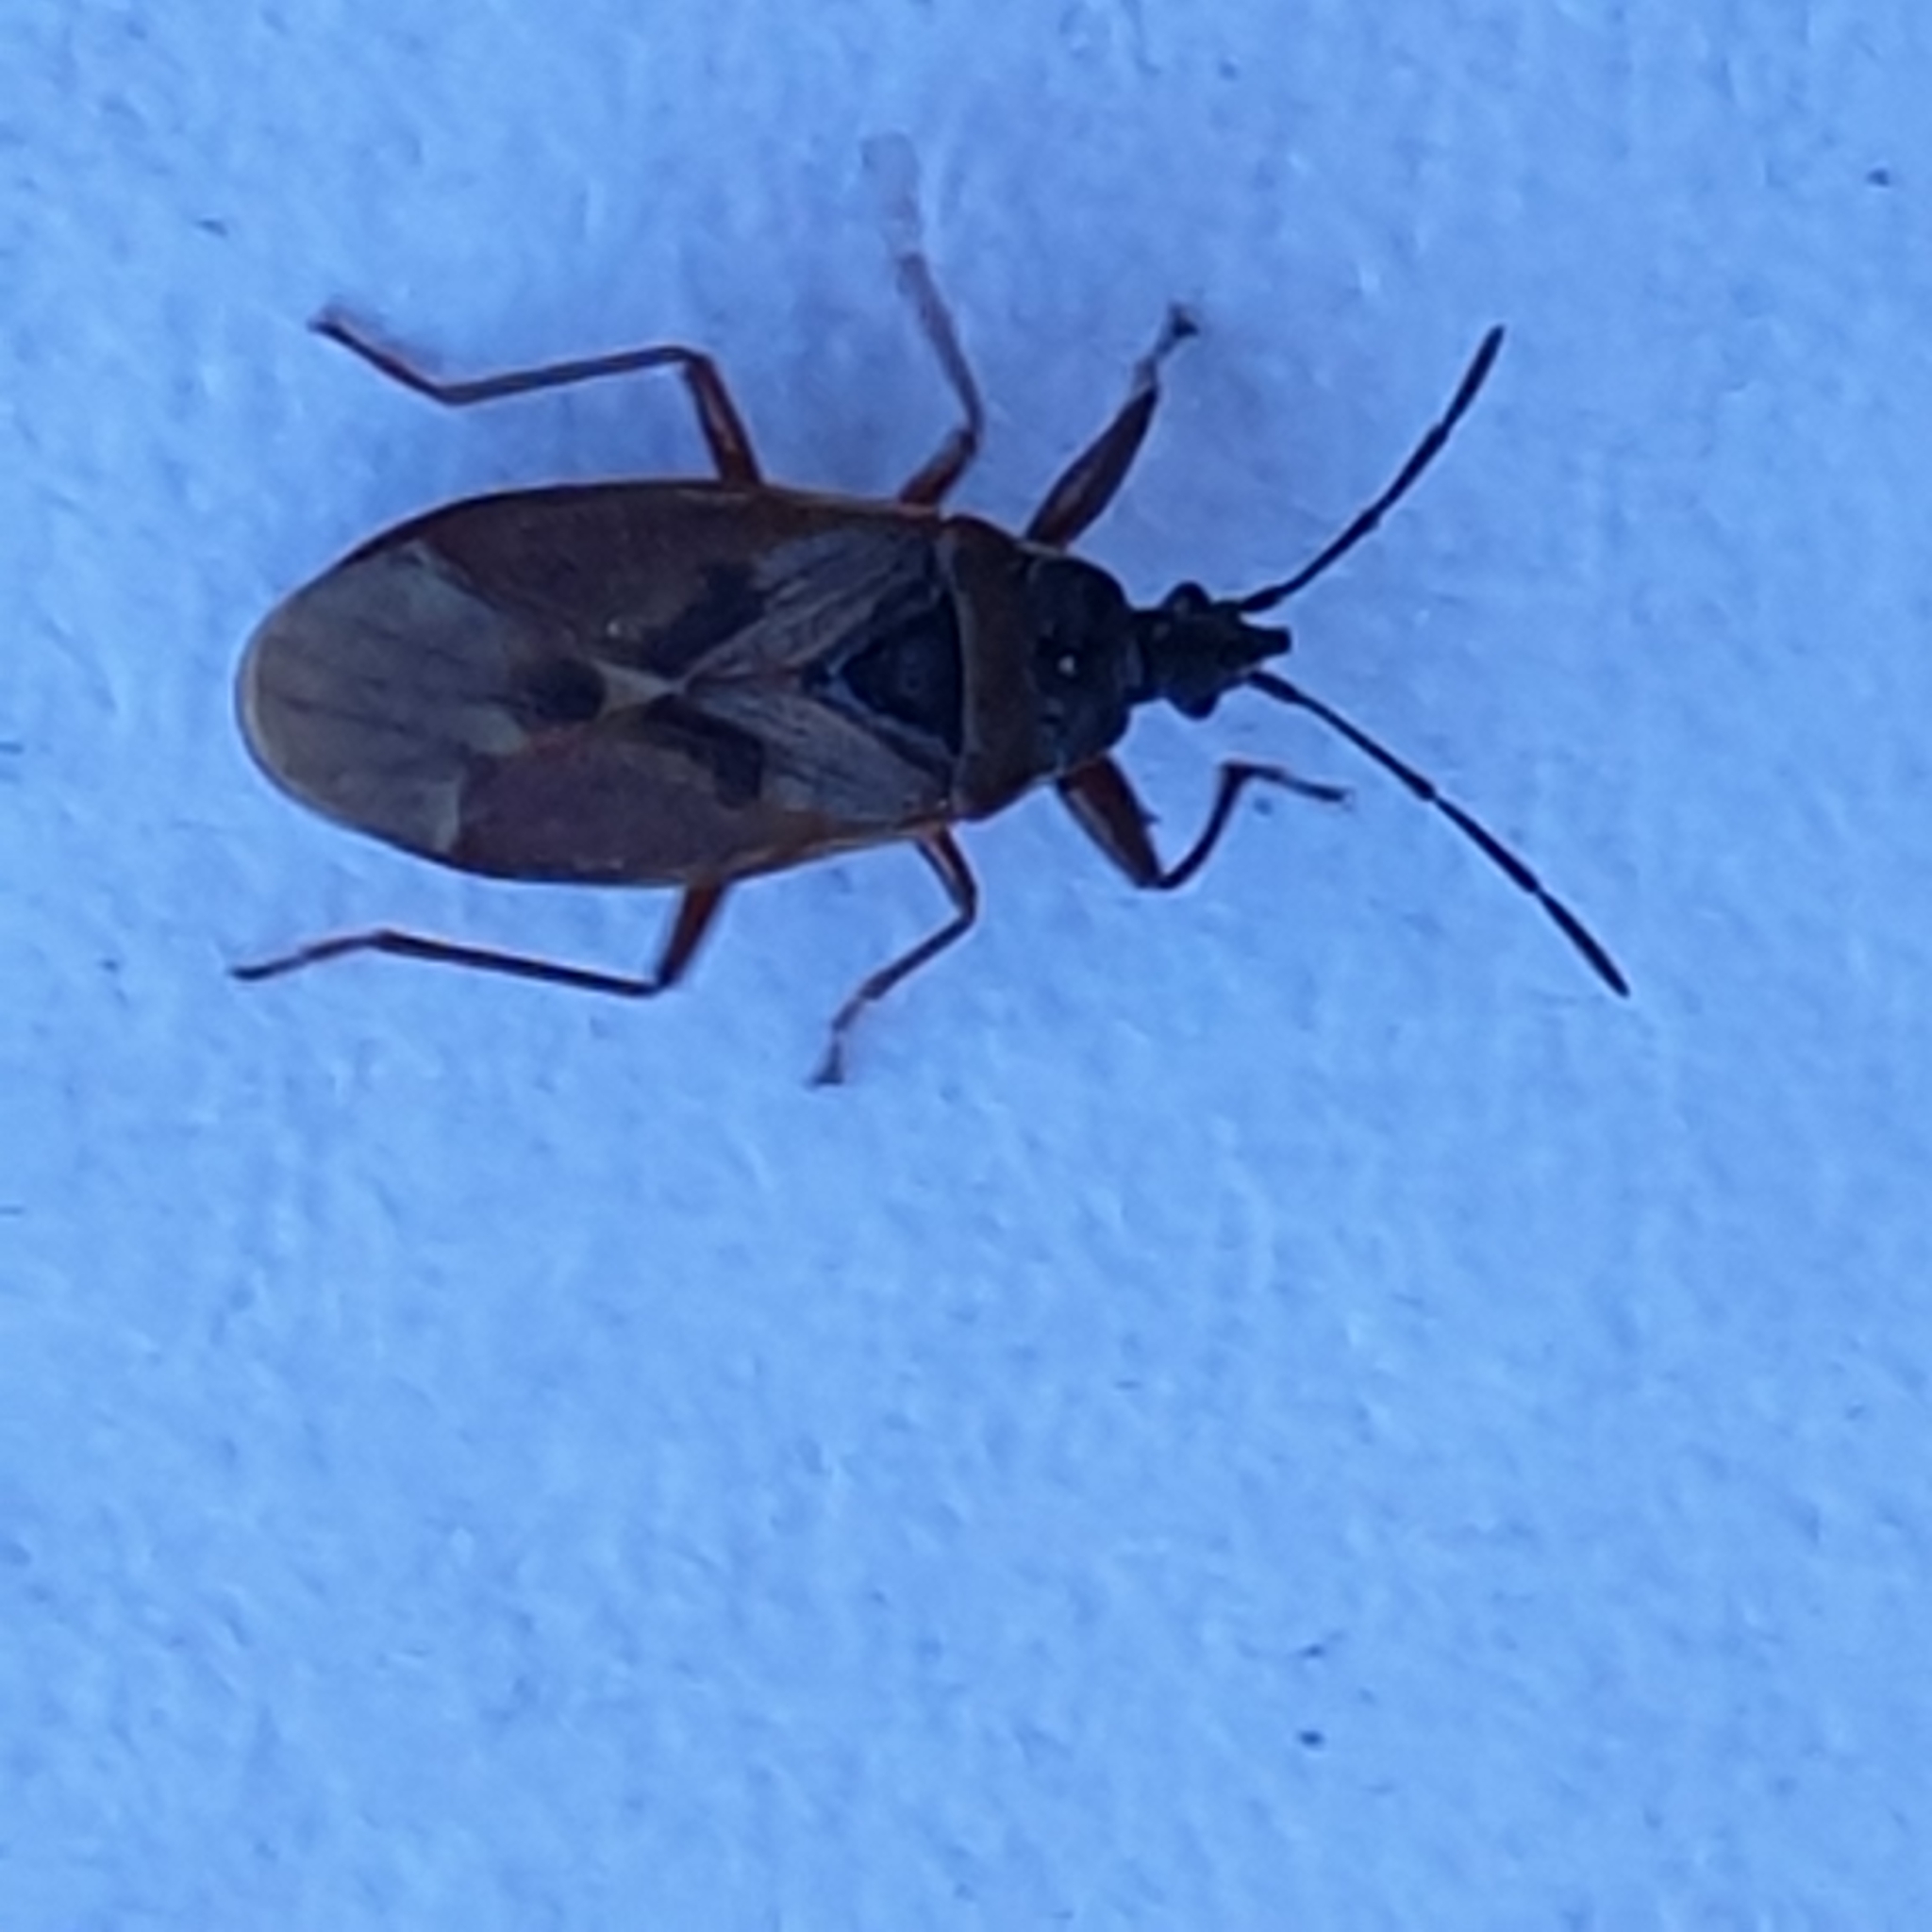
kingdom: Animalia
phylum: Arthropoda
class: Insecta
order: Hemiptera
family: Rhyparochromidae
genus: Gastrodes
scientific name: Gastrodes abietum
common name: Spruce cone bug
